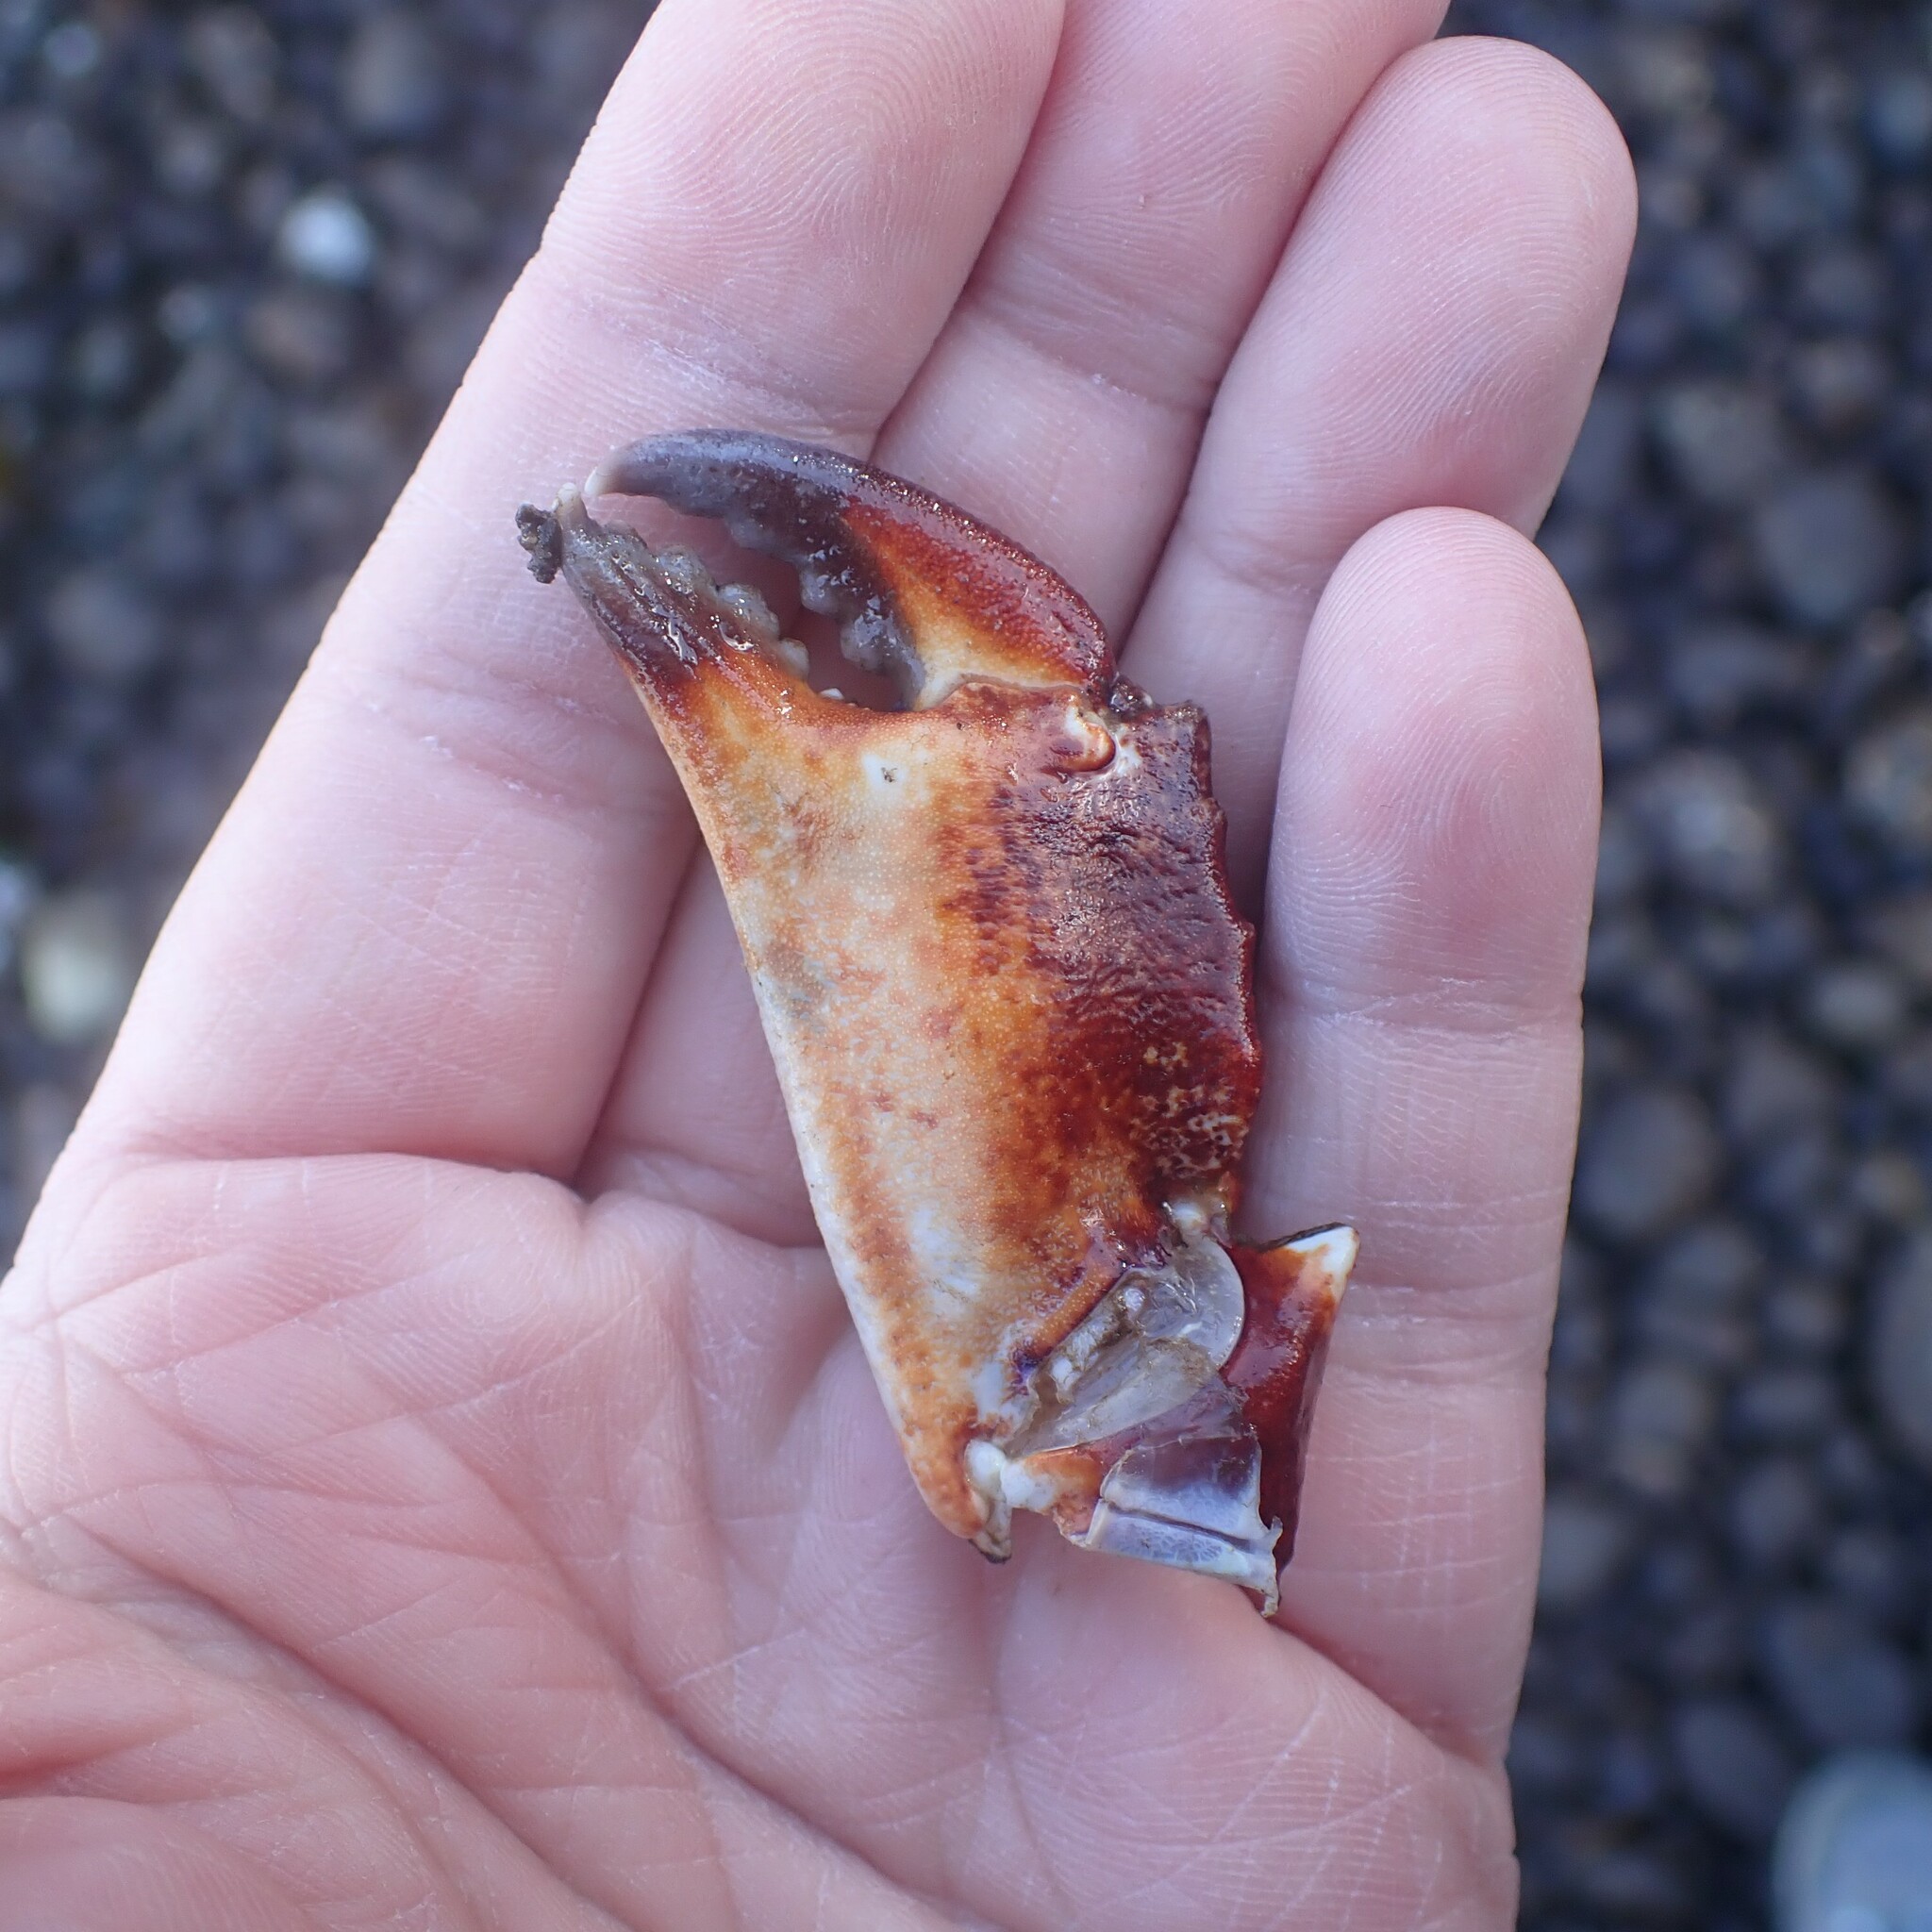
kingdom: Animalia
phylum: Arthropoda
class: Malacostraca
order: Decapoda
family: Cancridae
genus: Cancer
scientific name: Cancer productus
